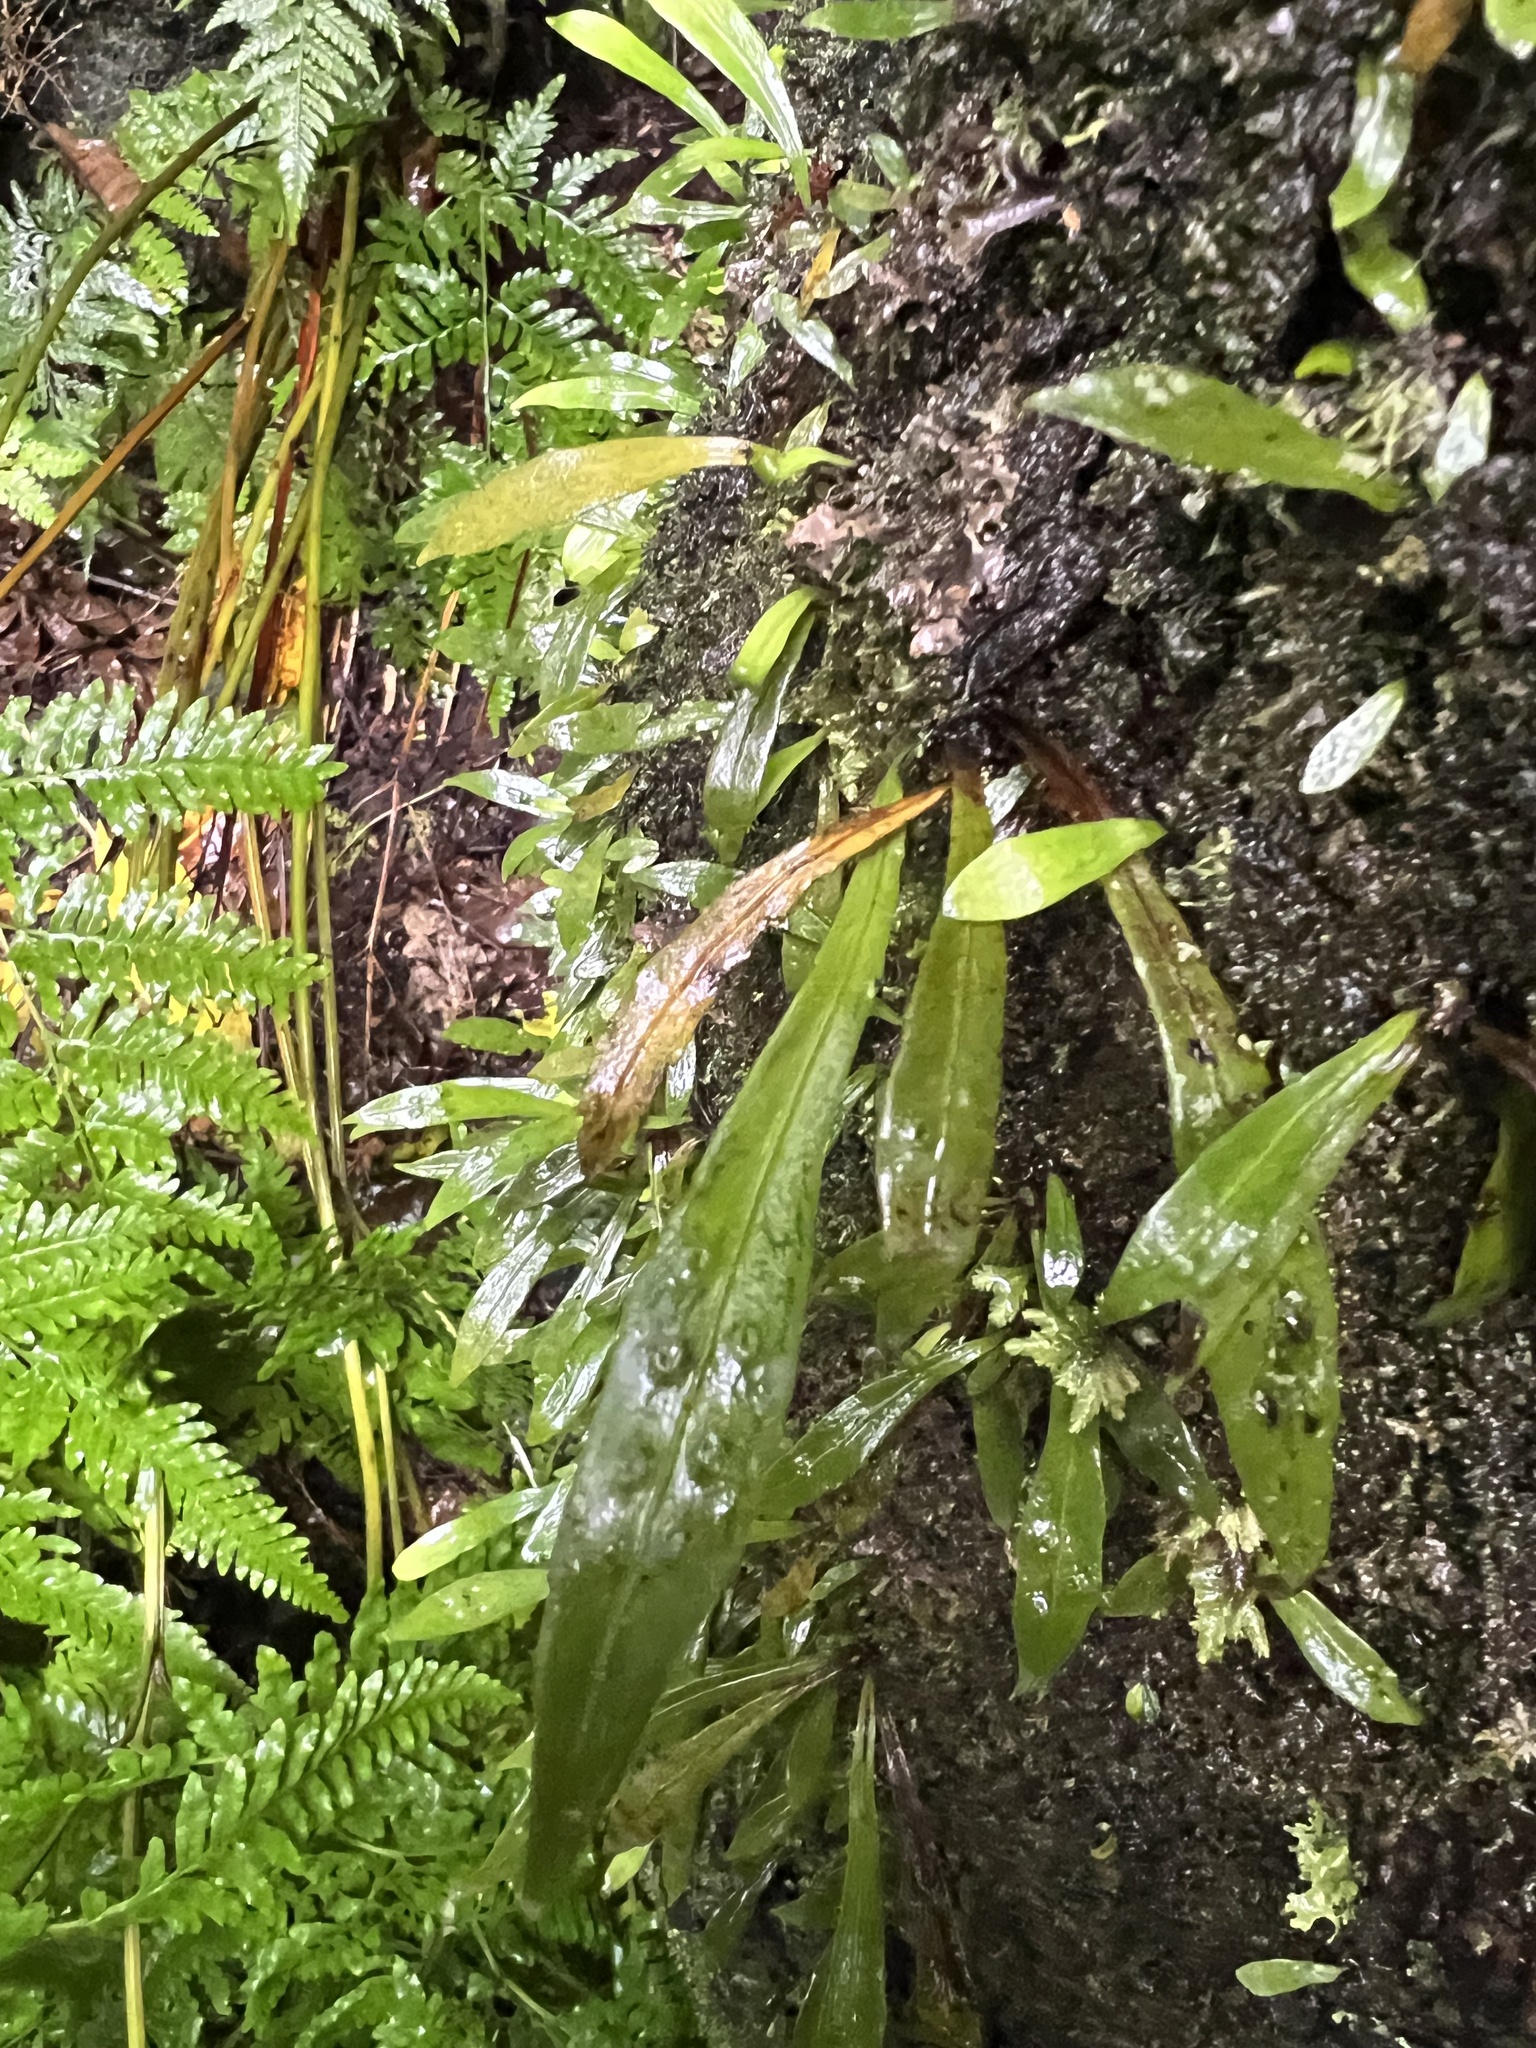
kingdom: Plantae
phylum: Tracheophyta
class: Polypodiopsida
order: Polypodiales
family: Polypodiaceae
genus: Loxogramme
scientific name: Loxogramme dictyopteris
